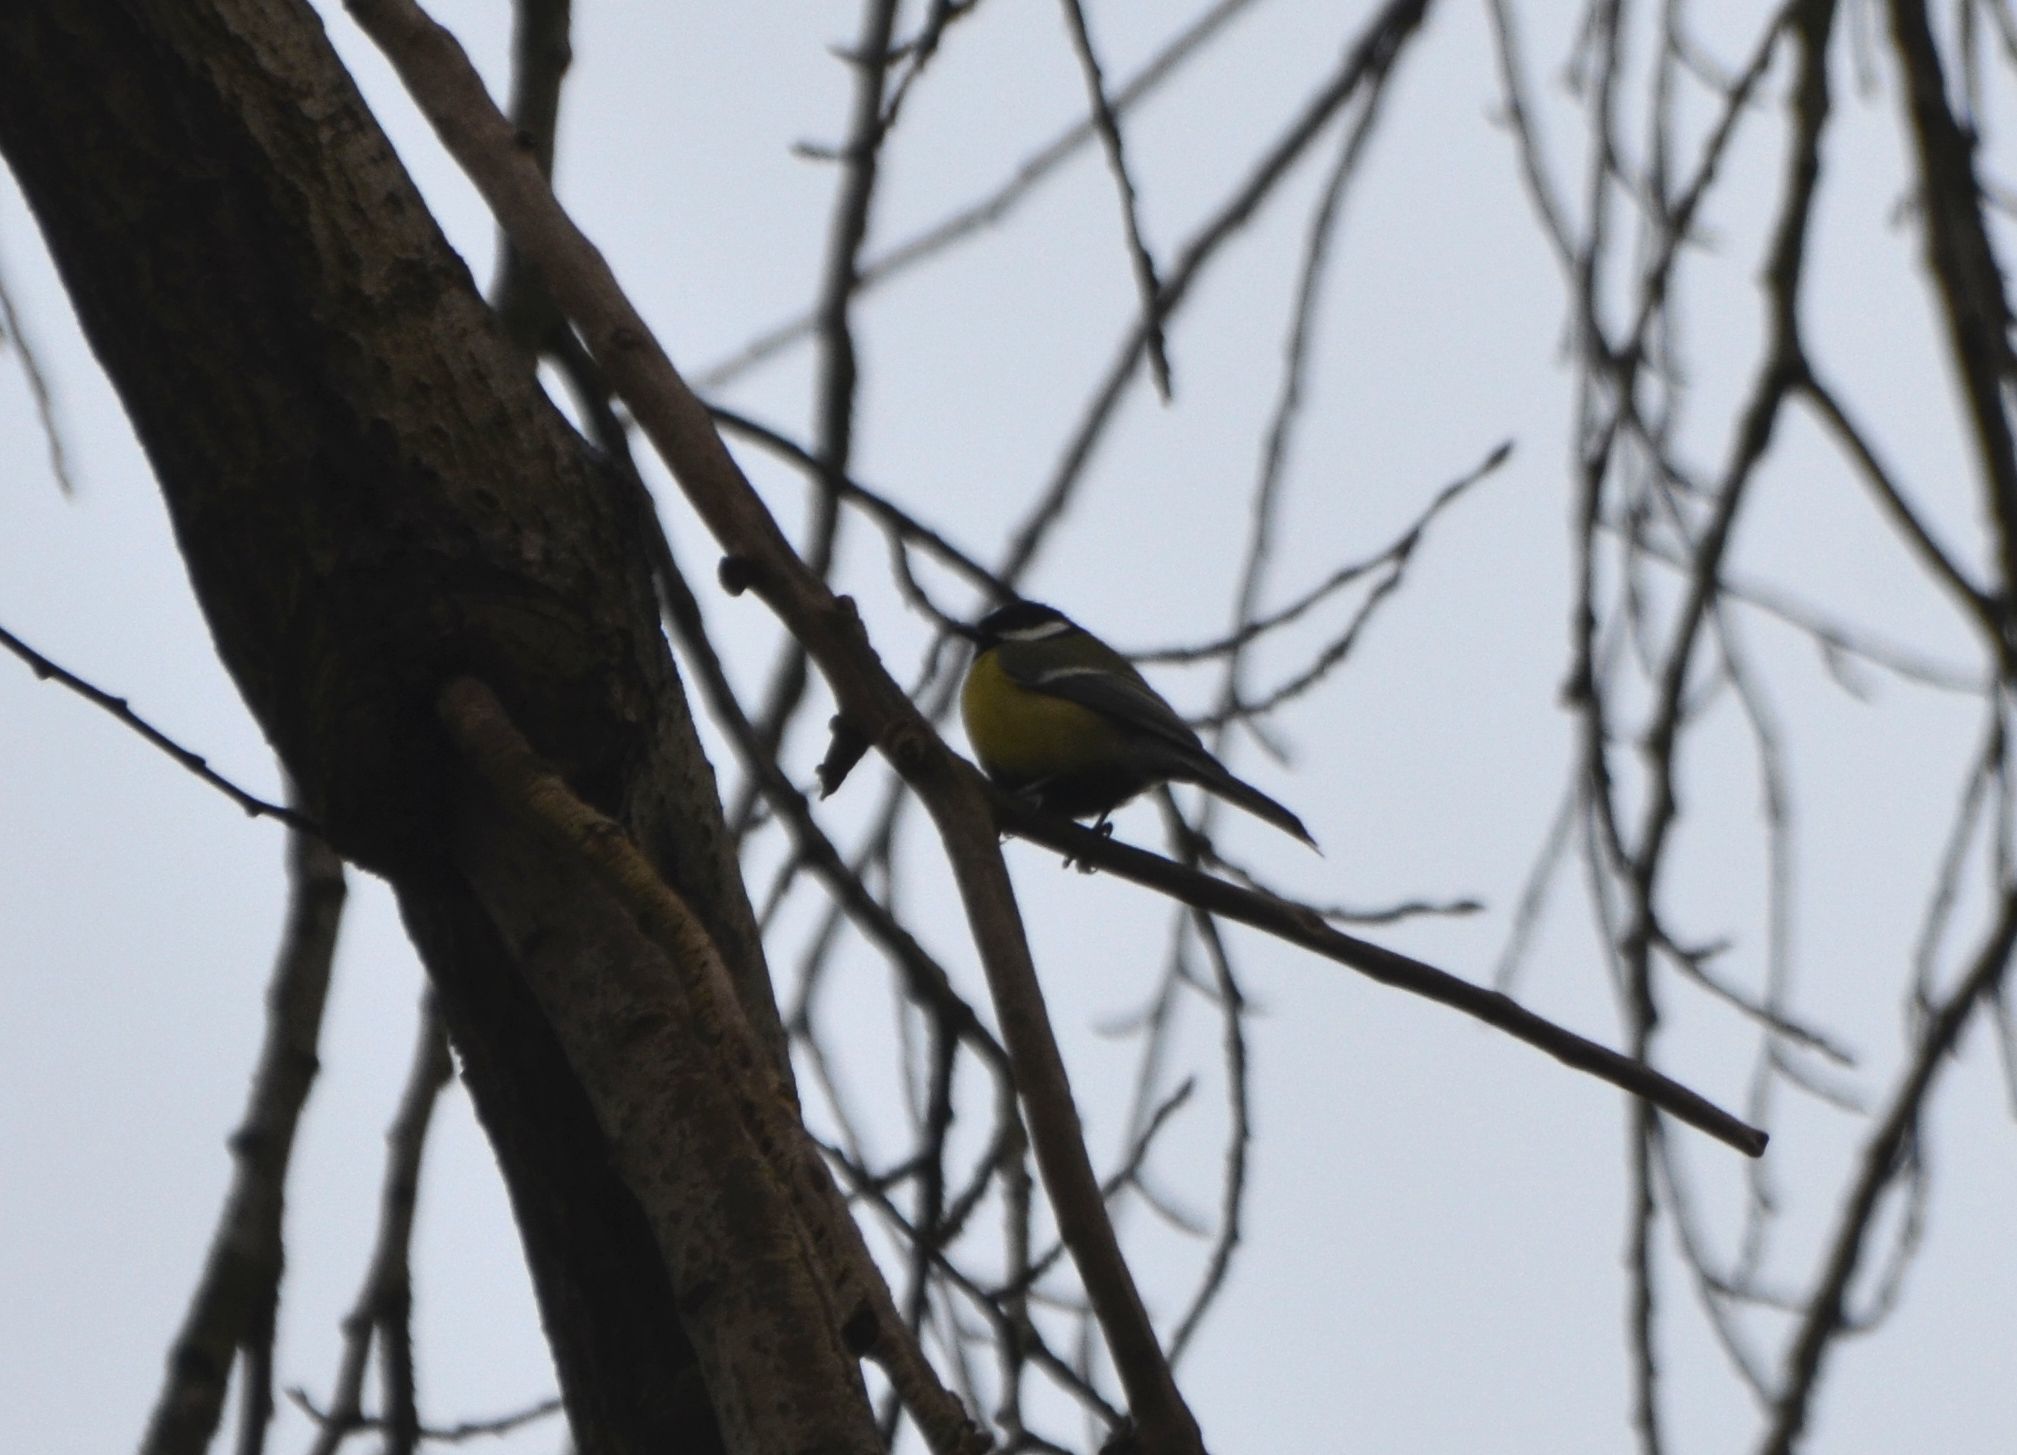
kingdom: Animalia
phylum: Chordata
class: Aves
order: Passeriformes
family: Paridae
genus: Parus
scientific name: Parus major
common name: Great tit
